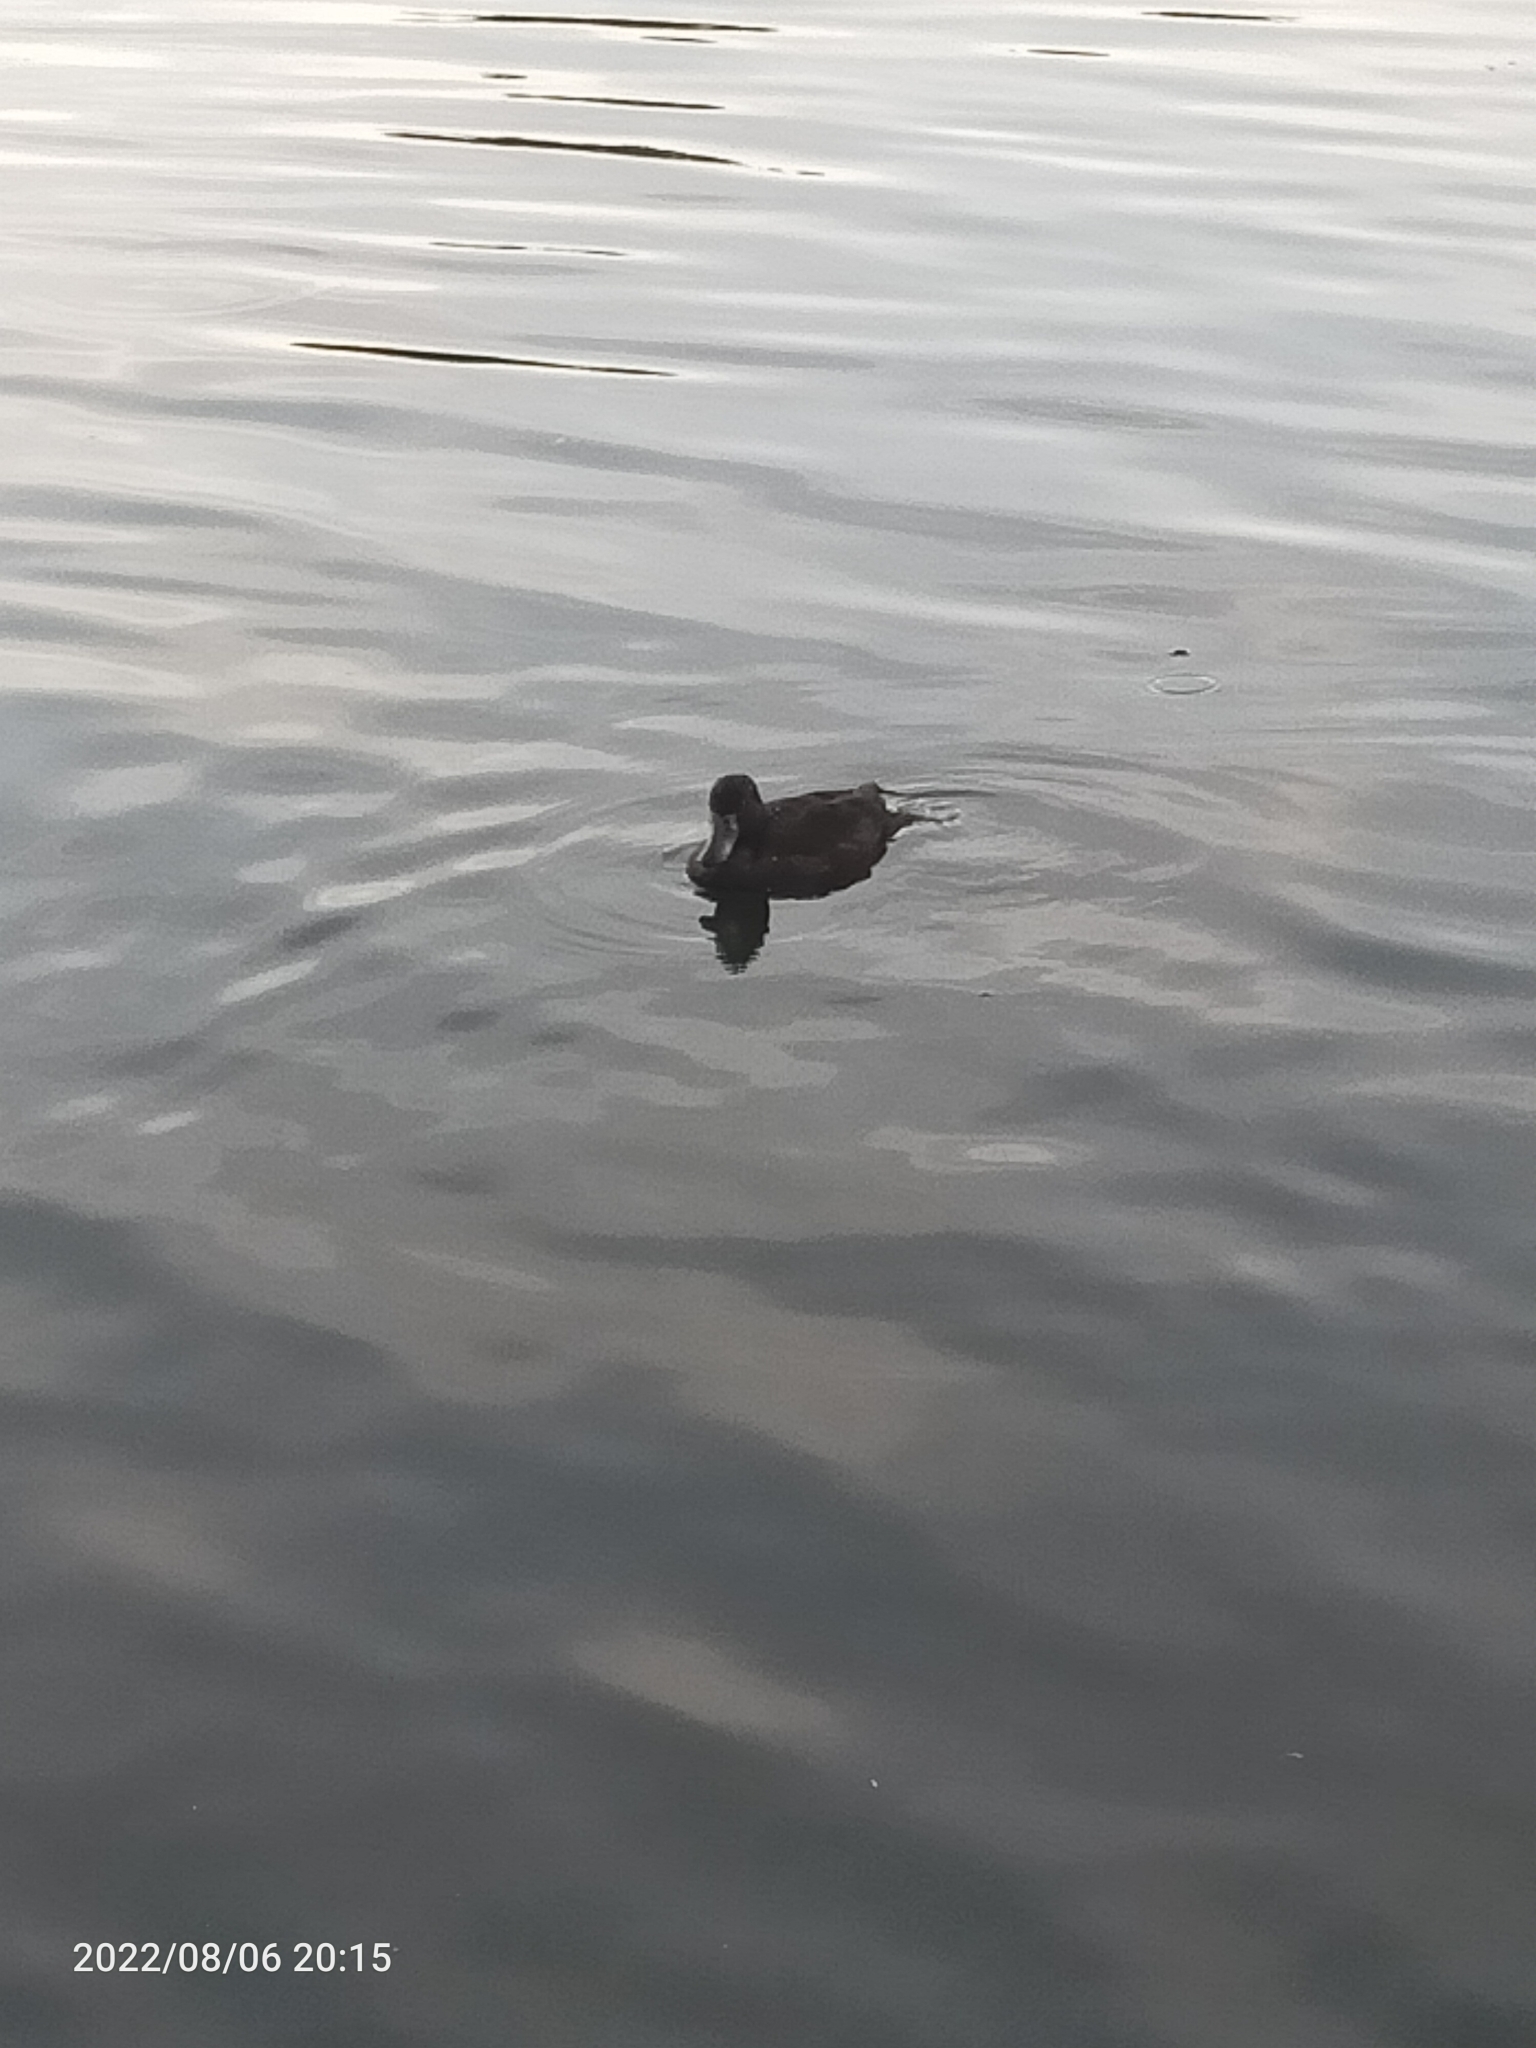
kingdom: Animalia
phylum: Chordata
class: Aves
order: Anseriformes
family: Anatidae
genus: Aythya
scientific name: Aythya fuligula
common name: Tufted duck
